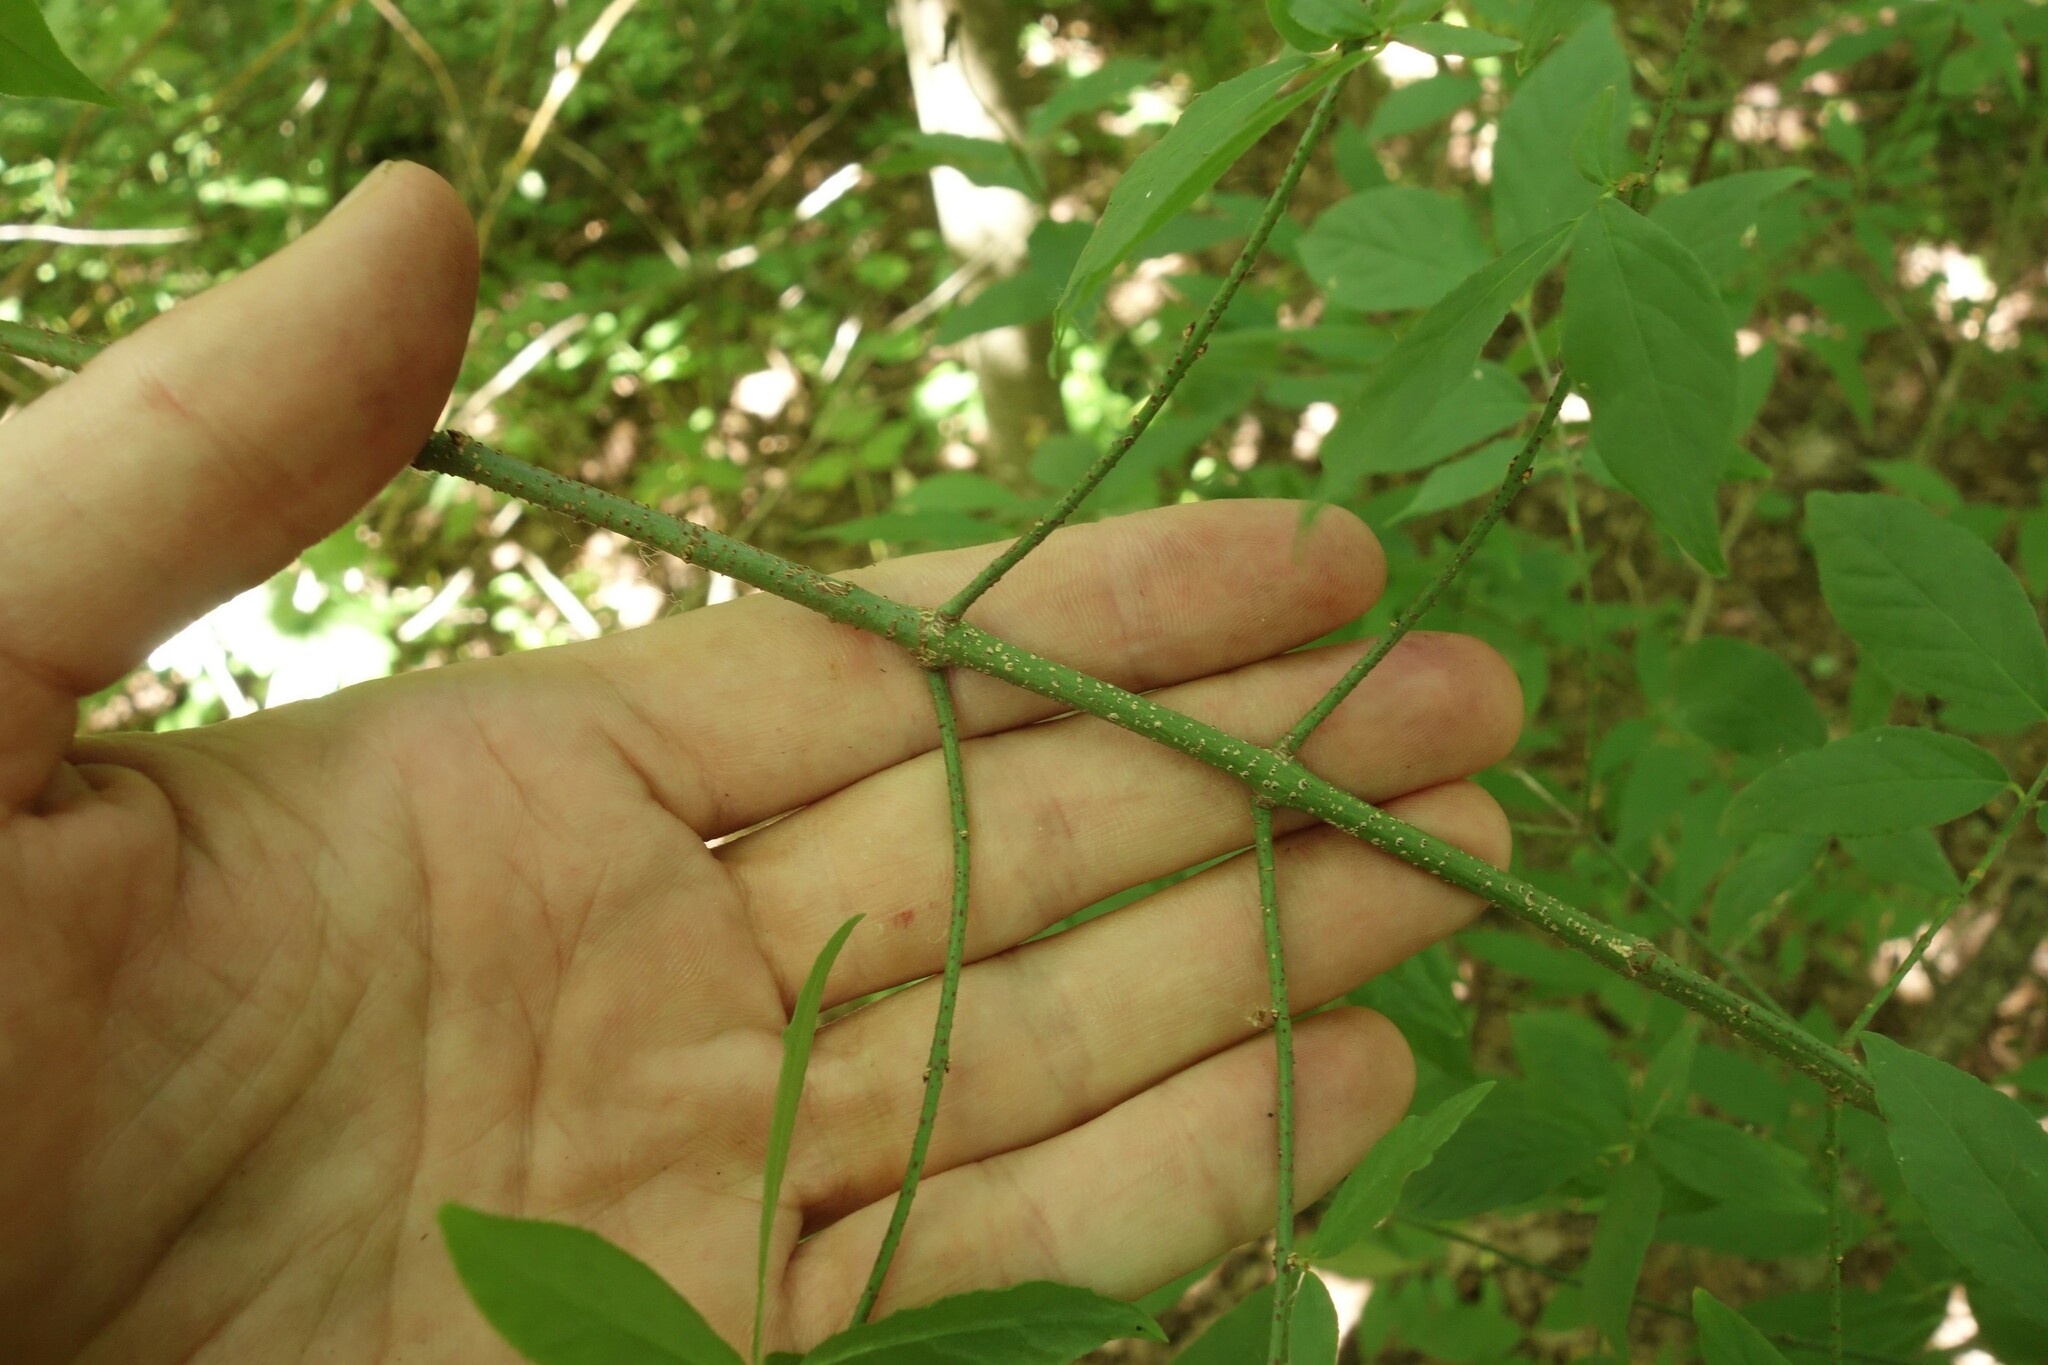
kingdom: Plantae
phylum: Tracheophyta
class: Magnoliopsida
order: Celastrales
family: Celastraceae
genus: Euonymus
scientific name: Euonymus verrucosus
